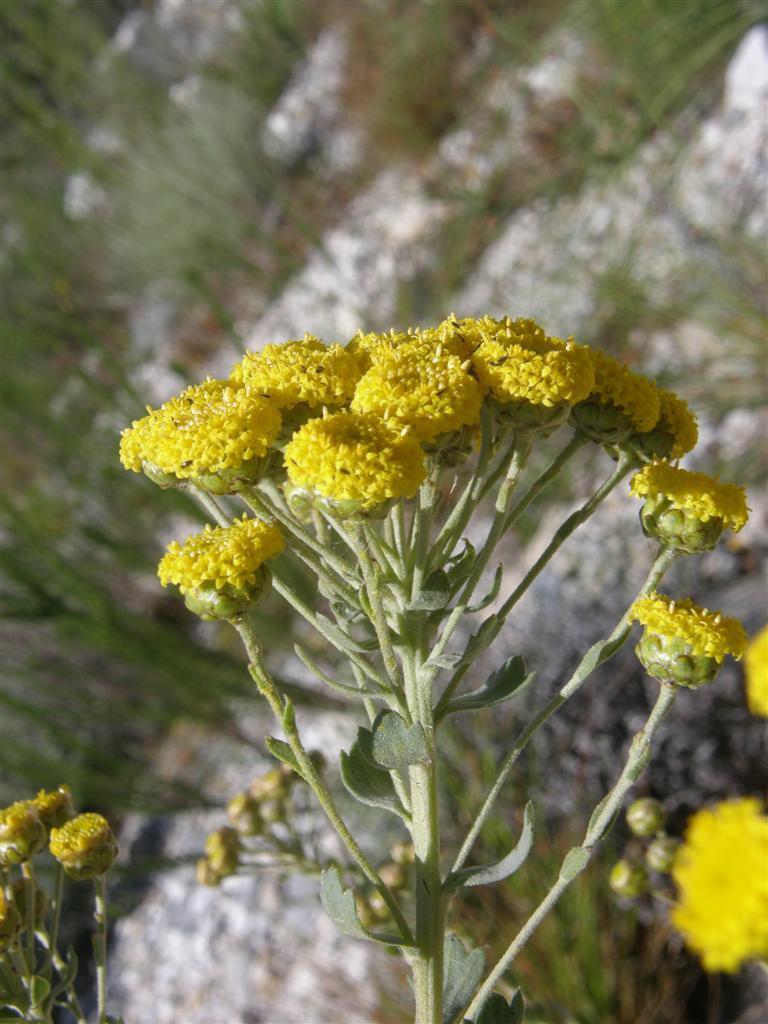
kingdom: Plantae
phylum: Tracheophyta
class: Magnoliopsida
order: Asterales
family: Asteraceae
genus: Athanasia
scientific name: Athanasia trifurcata
